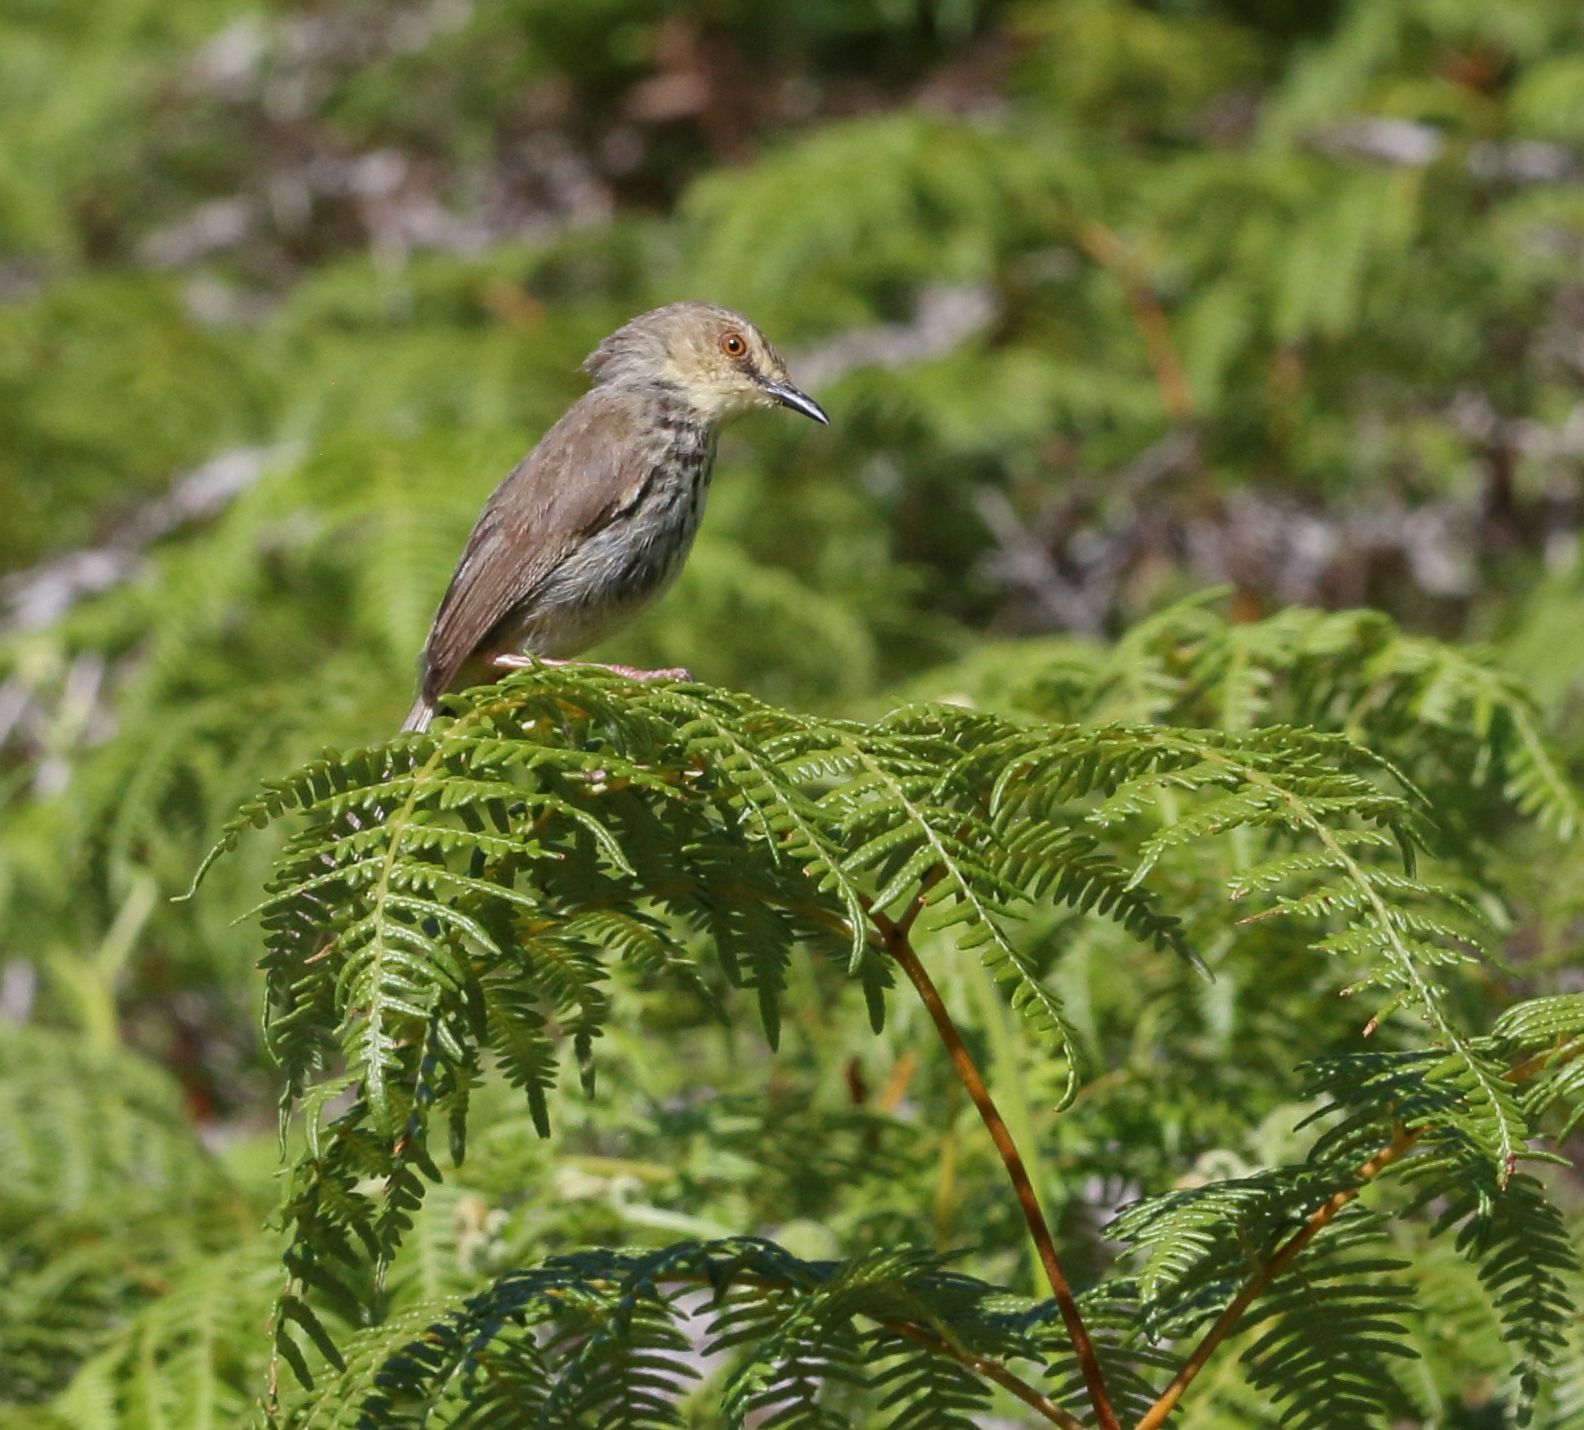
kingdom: Animalia
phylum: Chordata
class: Aves
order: Passeriformes
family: Cisticolidae
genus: Prinia
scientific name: Prinia hypoxantha
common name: Drakensberg prinia
